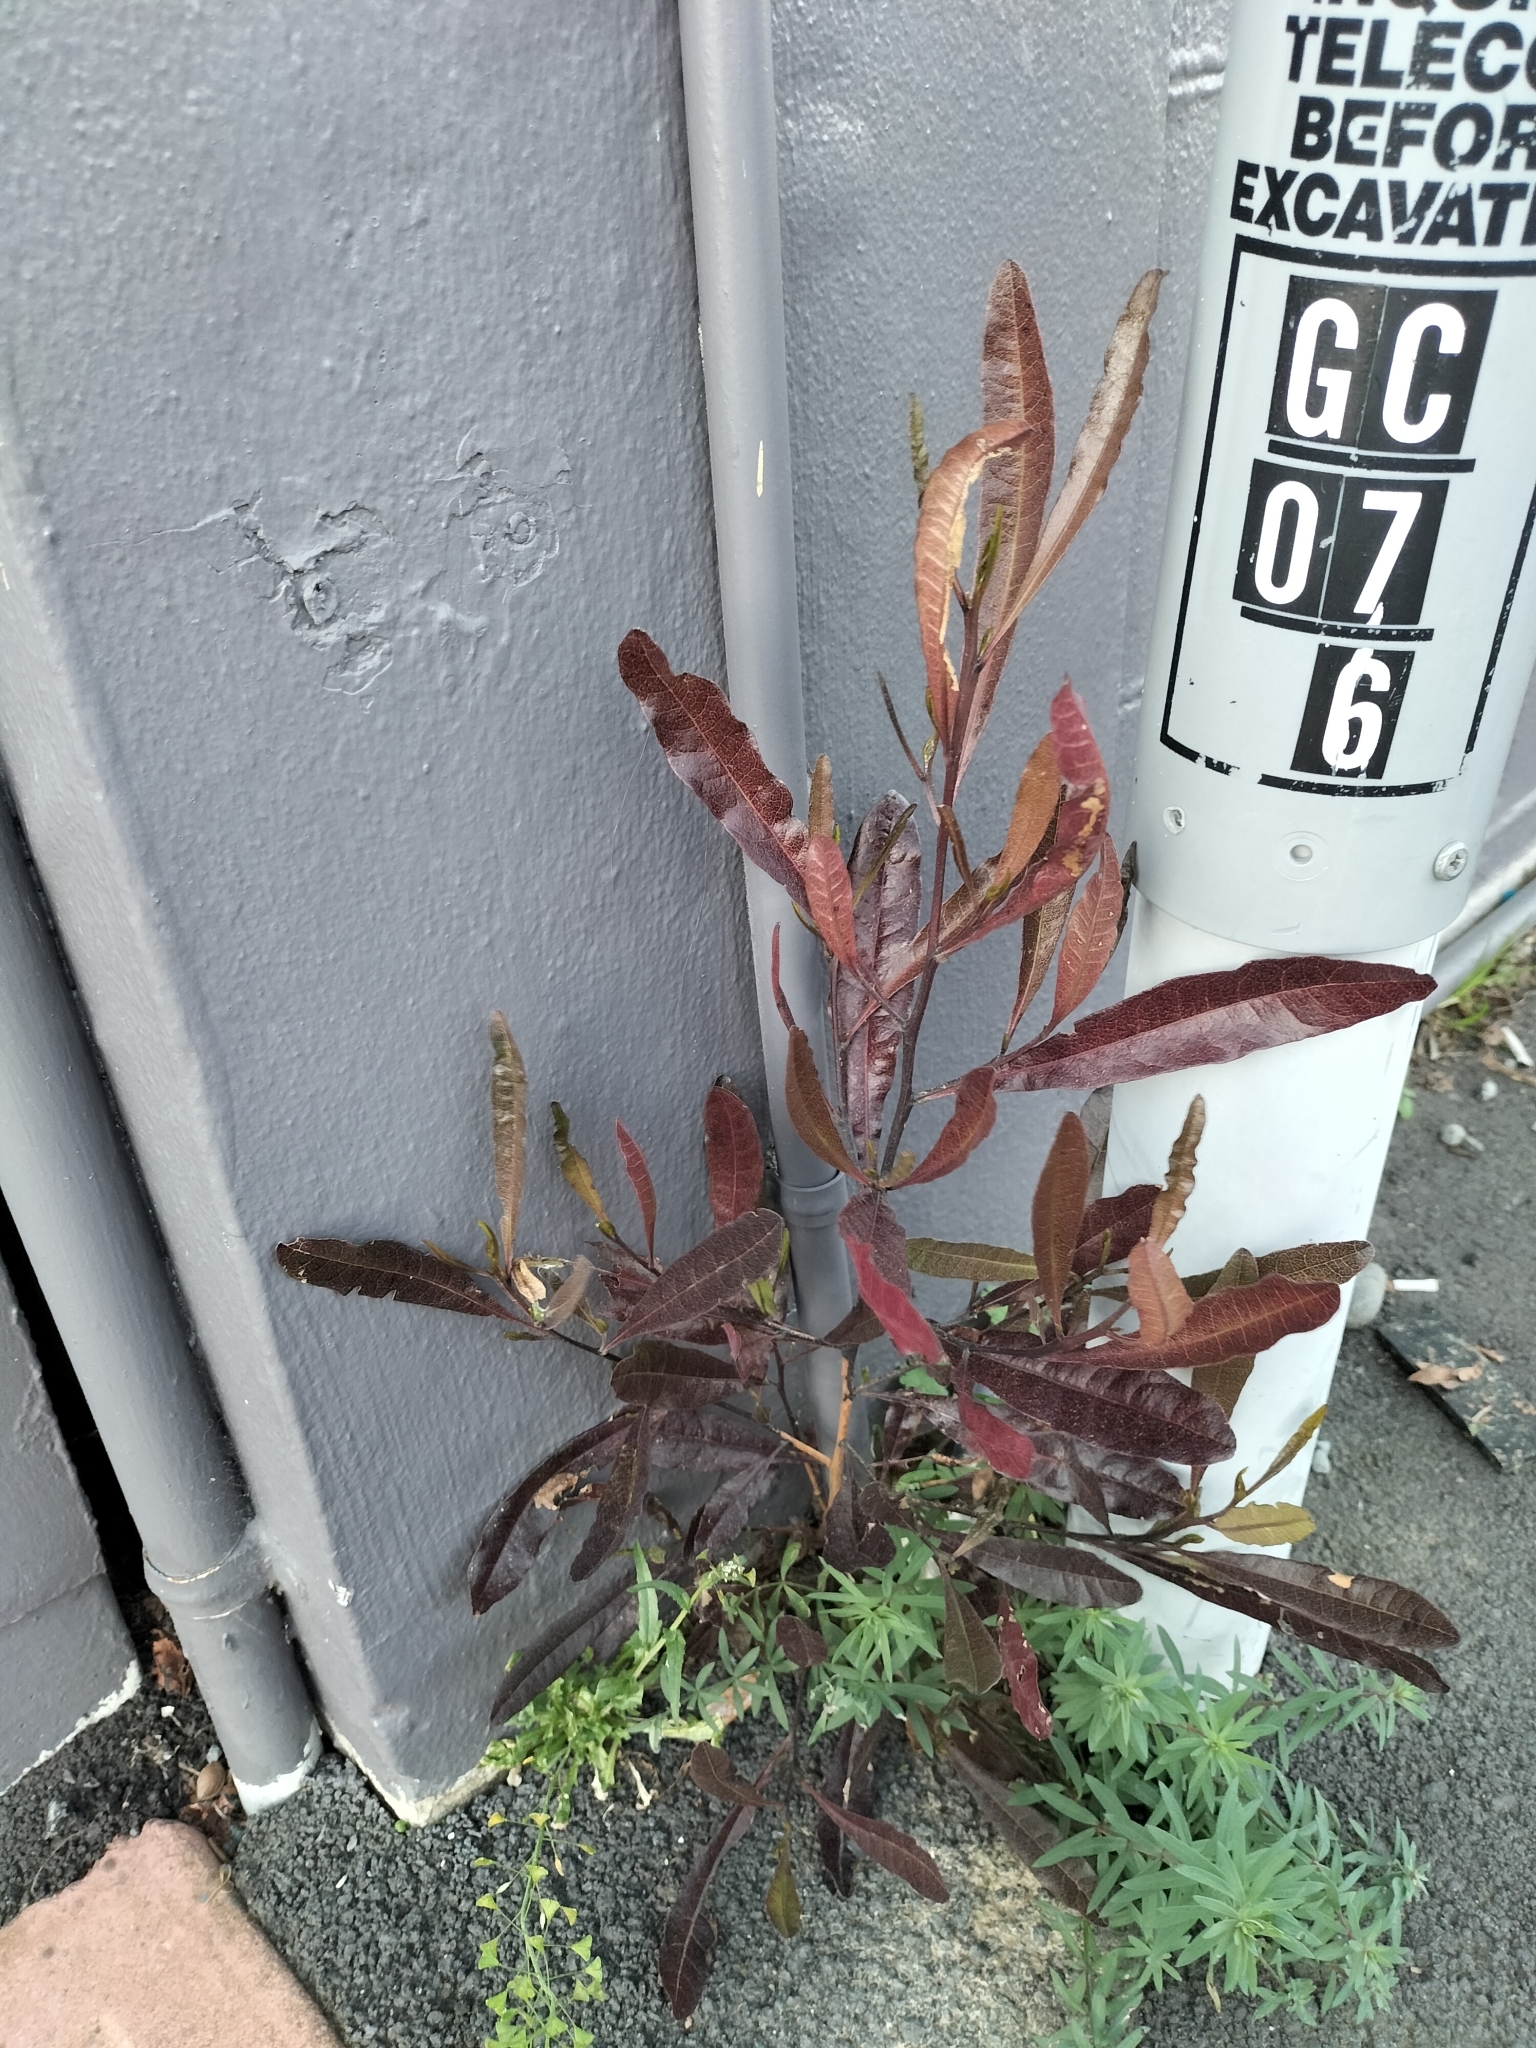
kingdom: Plantae
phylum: Tracheophyta
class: Magnoliopsida
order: Sapindales
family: Sapindaceae
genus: Dodonaea
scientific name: Dodonaea viscosa
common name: Hopbush
